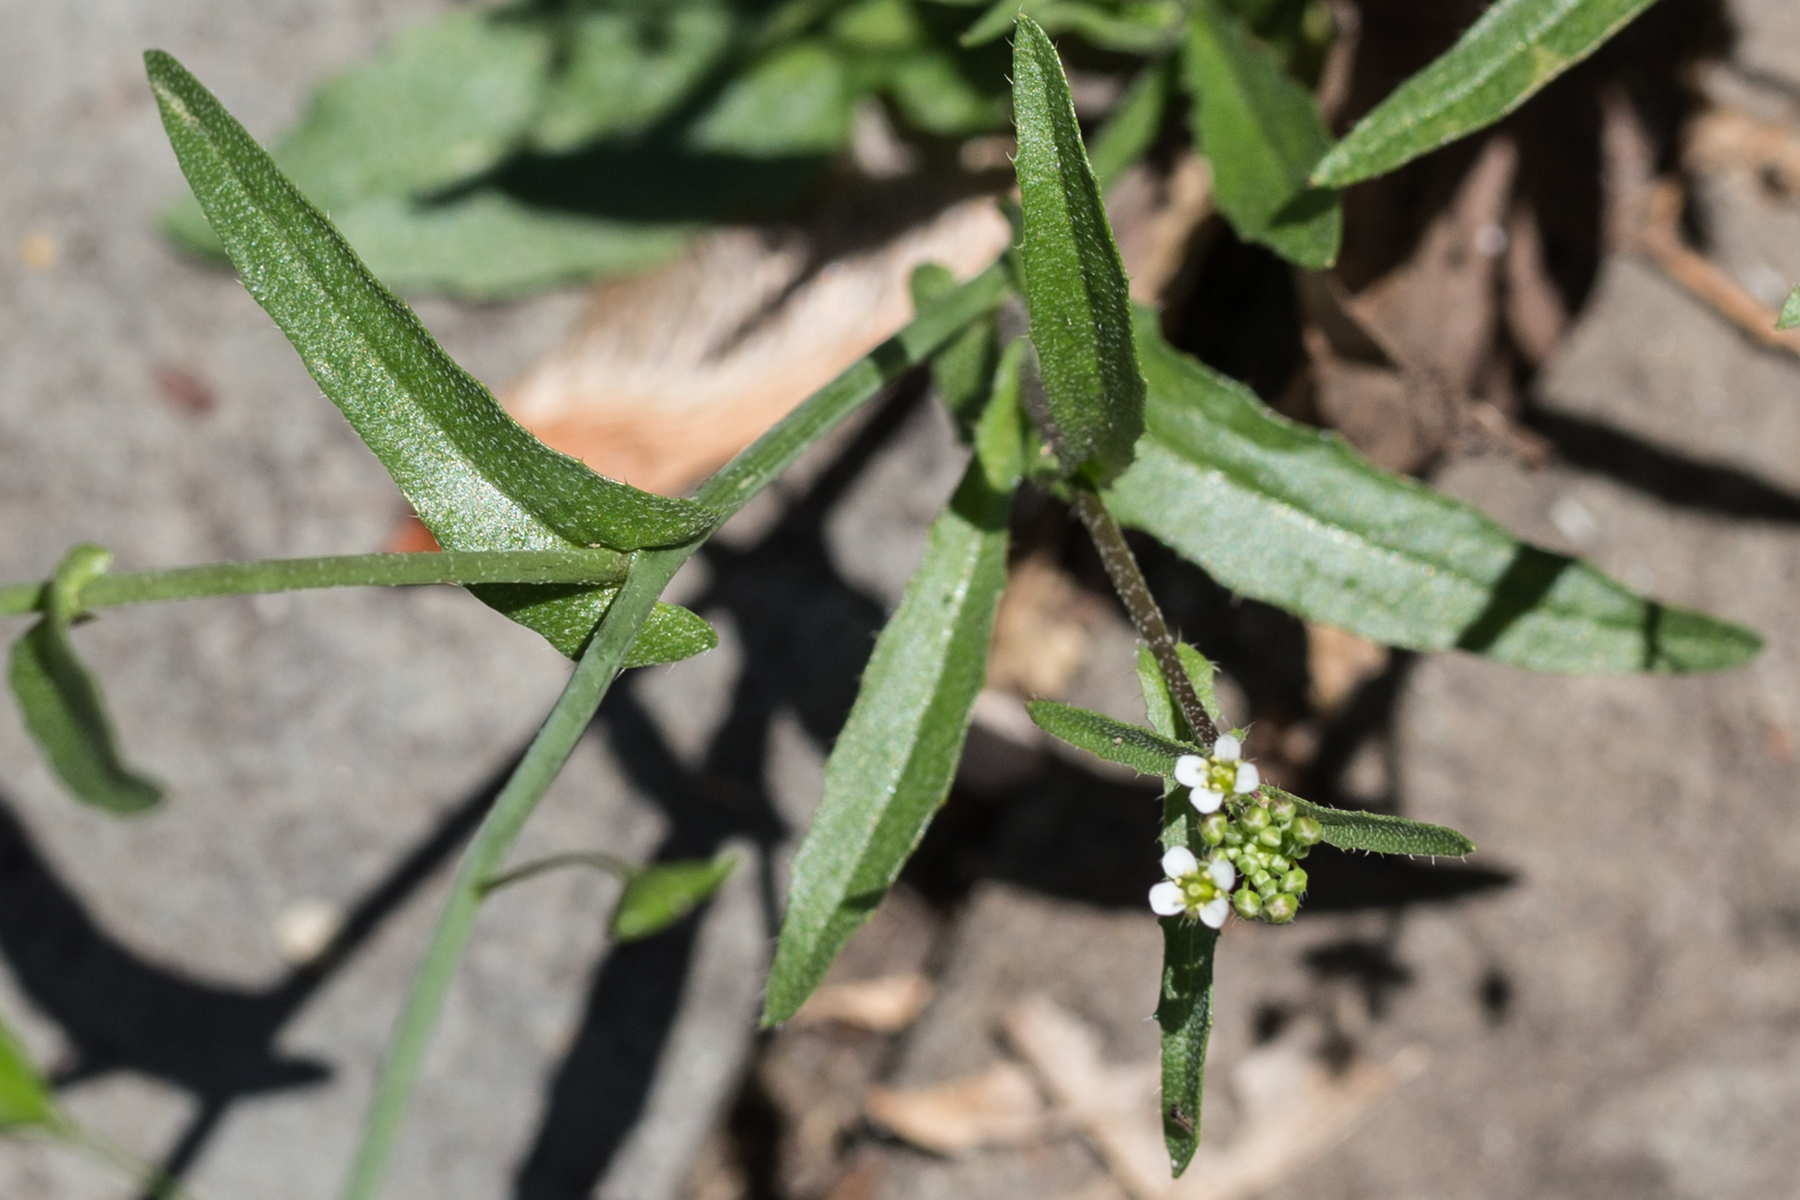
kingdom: Plantae
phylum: Tracheophyta
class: Magnoliopsida
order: Brassicales
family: Brassicaceae
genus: Capsella
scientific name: Capsella bursa-pastoris
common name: Shepherd's purse
